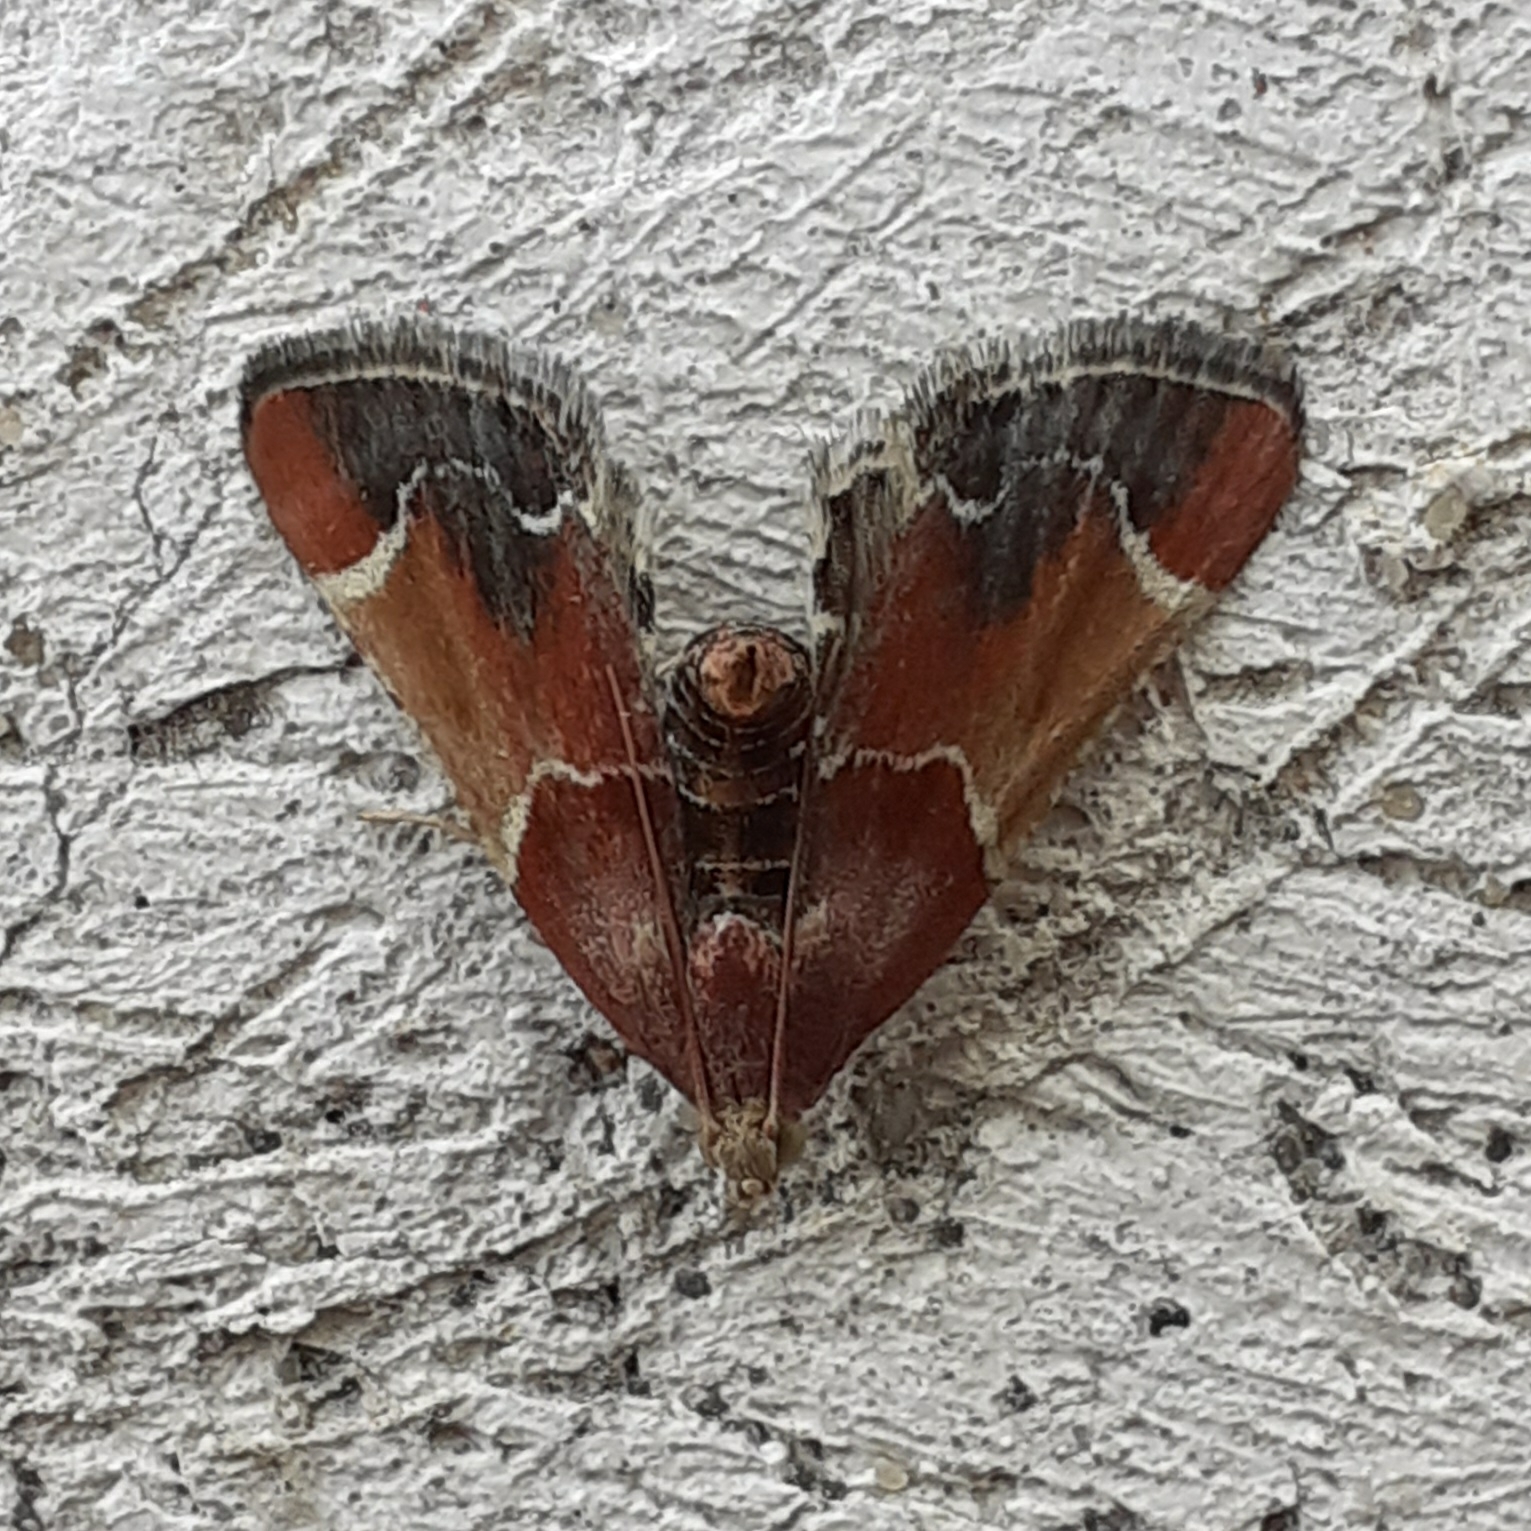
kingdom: Animalia
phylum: Arthropoda
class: Insecta
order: Lepidoptera
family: Pyralidae
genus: Pyralis
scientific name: Pyralis farinalis
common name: Meal moth
